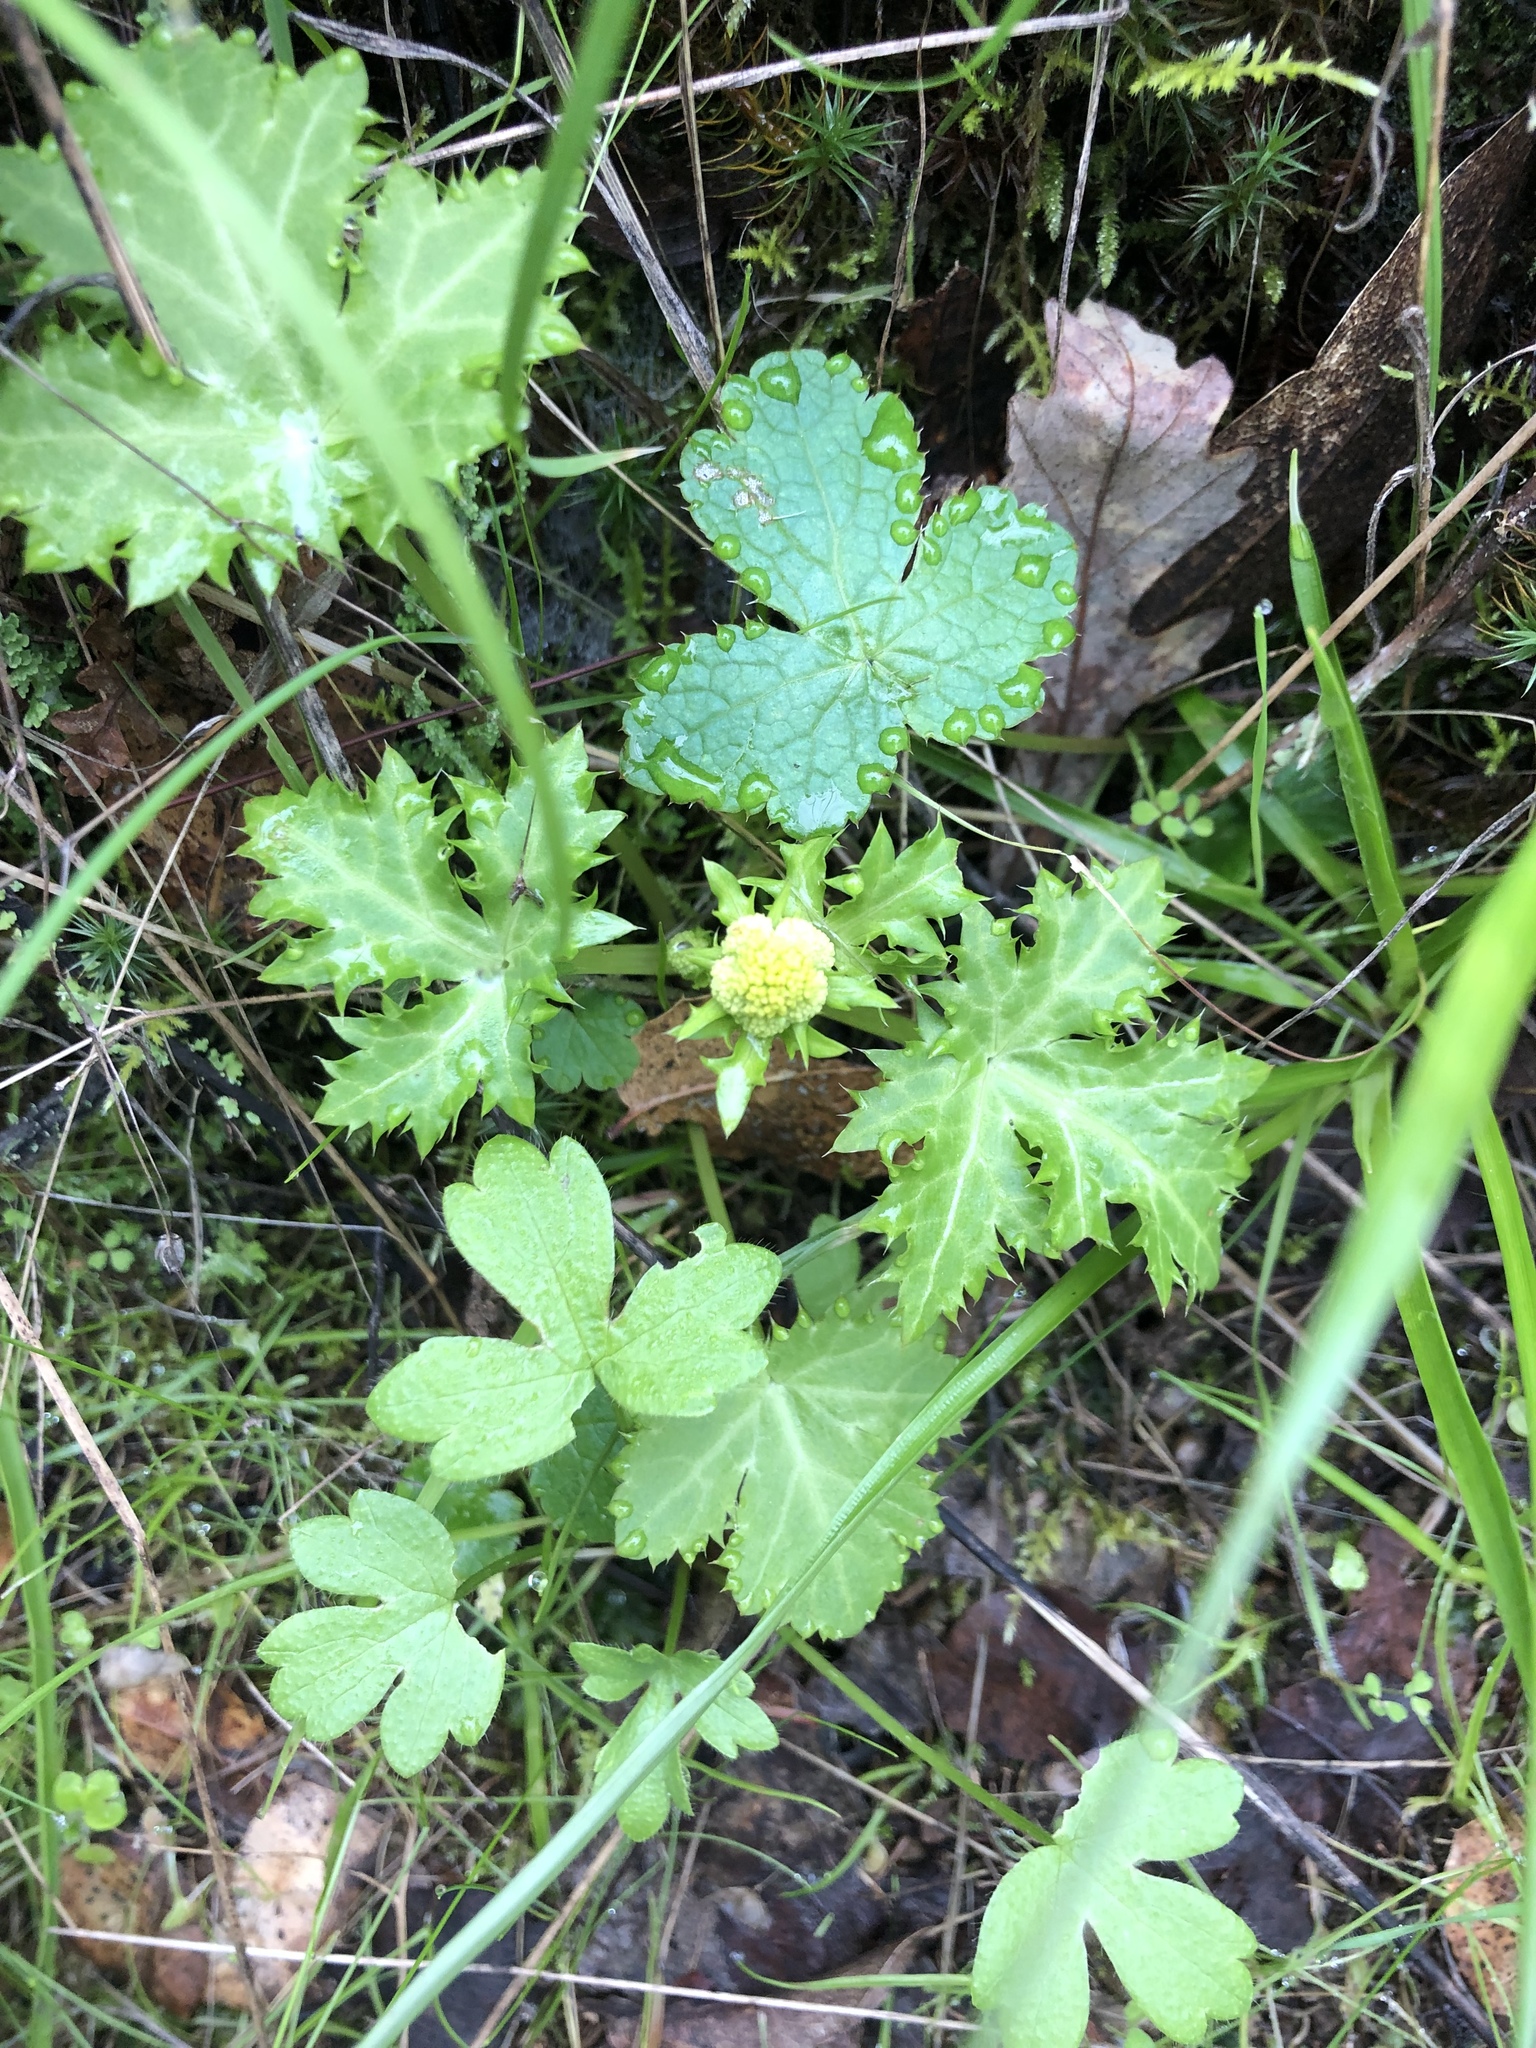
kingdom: Plantae
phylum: Tracheophyta
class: Magnoliopsida
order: Apiales
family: Apiaceae
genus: Sanicula
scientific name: Sanicula laciniata
